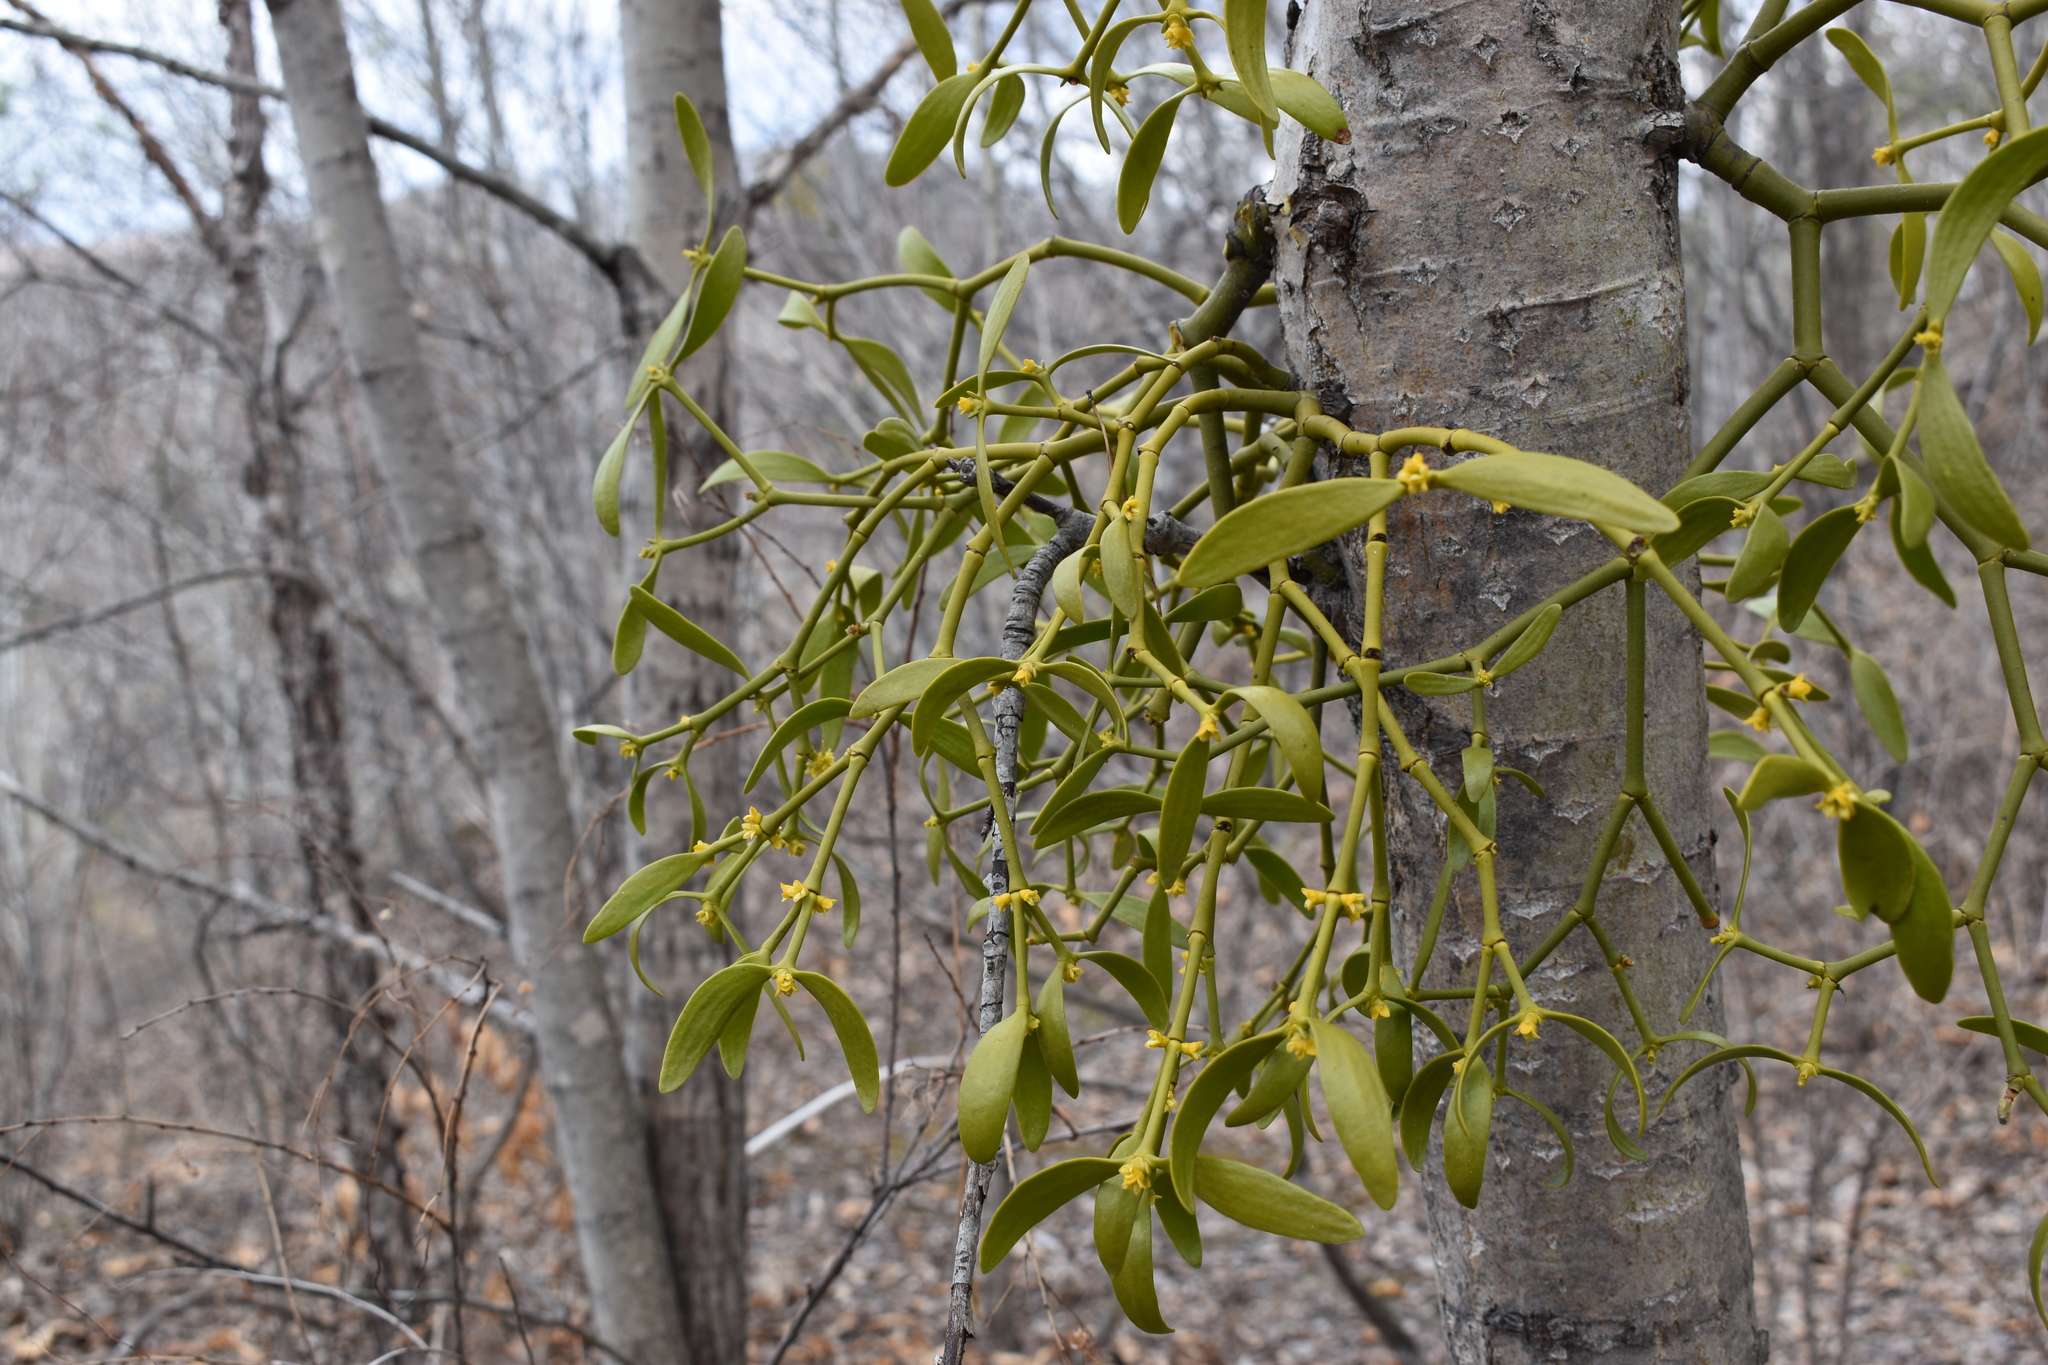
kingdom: Plantae
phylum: Tracheophyta
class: Magnoliopsida
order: Santalales
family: Viscaceae
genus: Viscum
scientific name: Viscum coloratum
